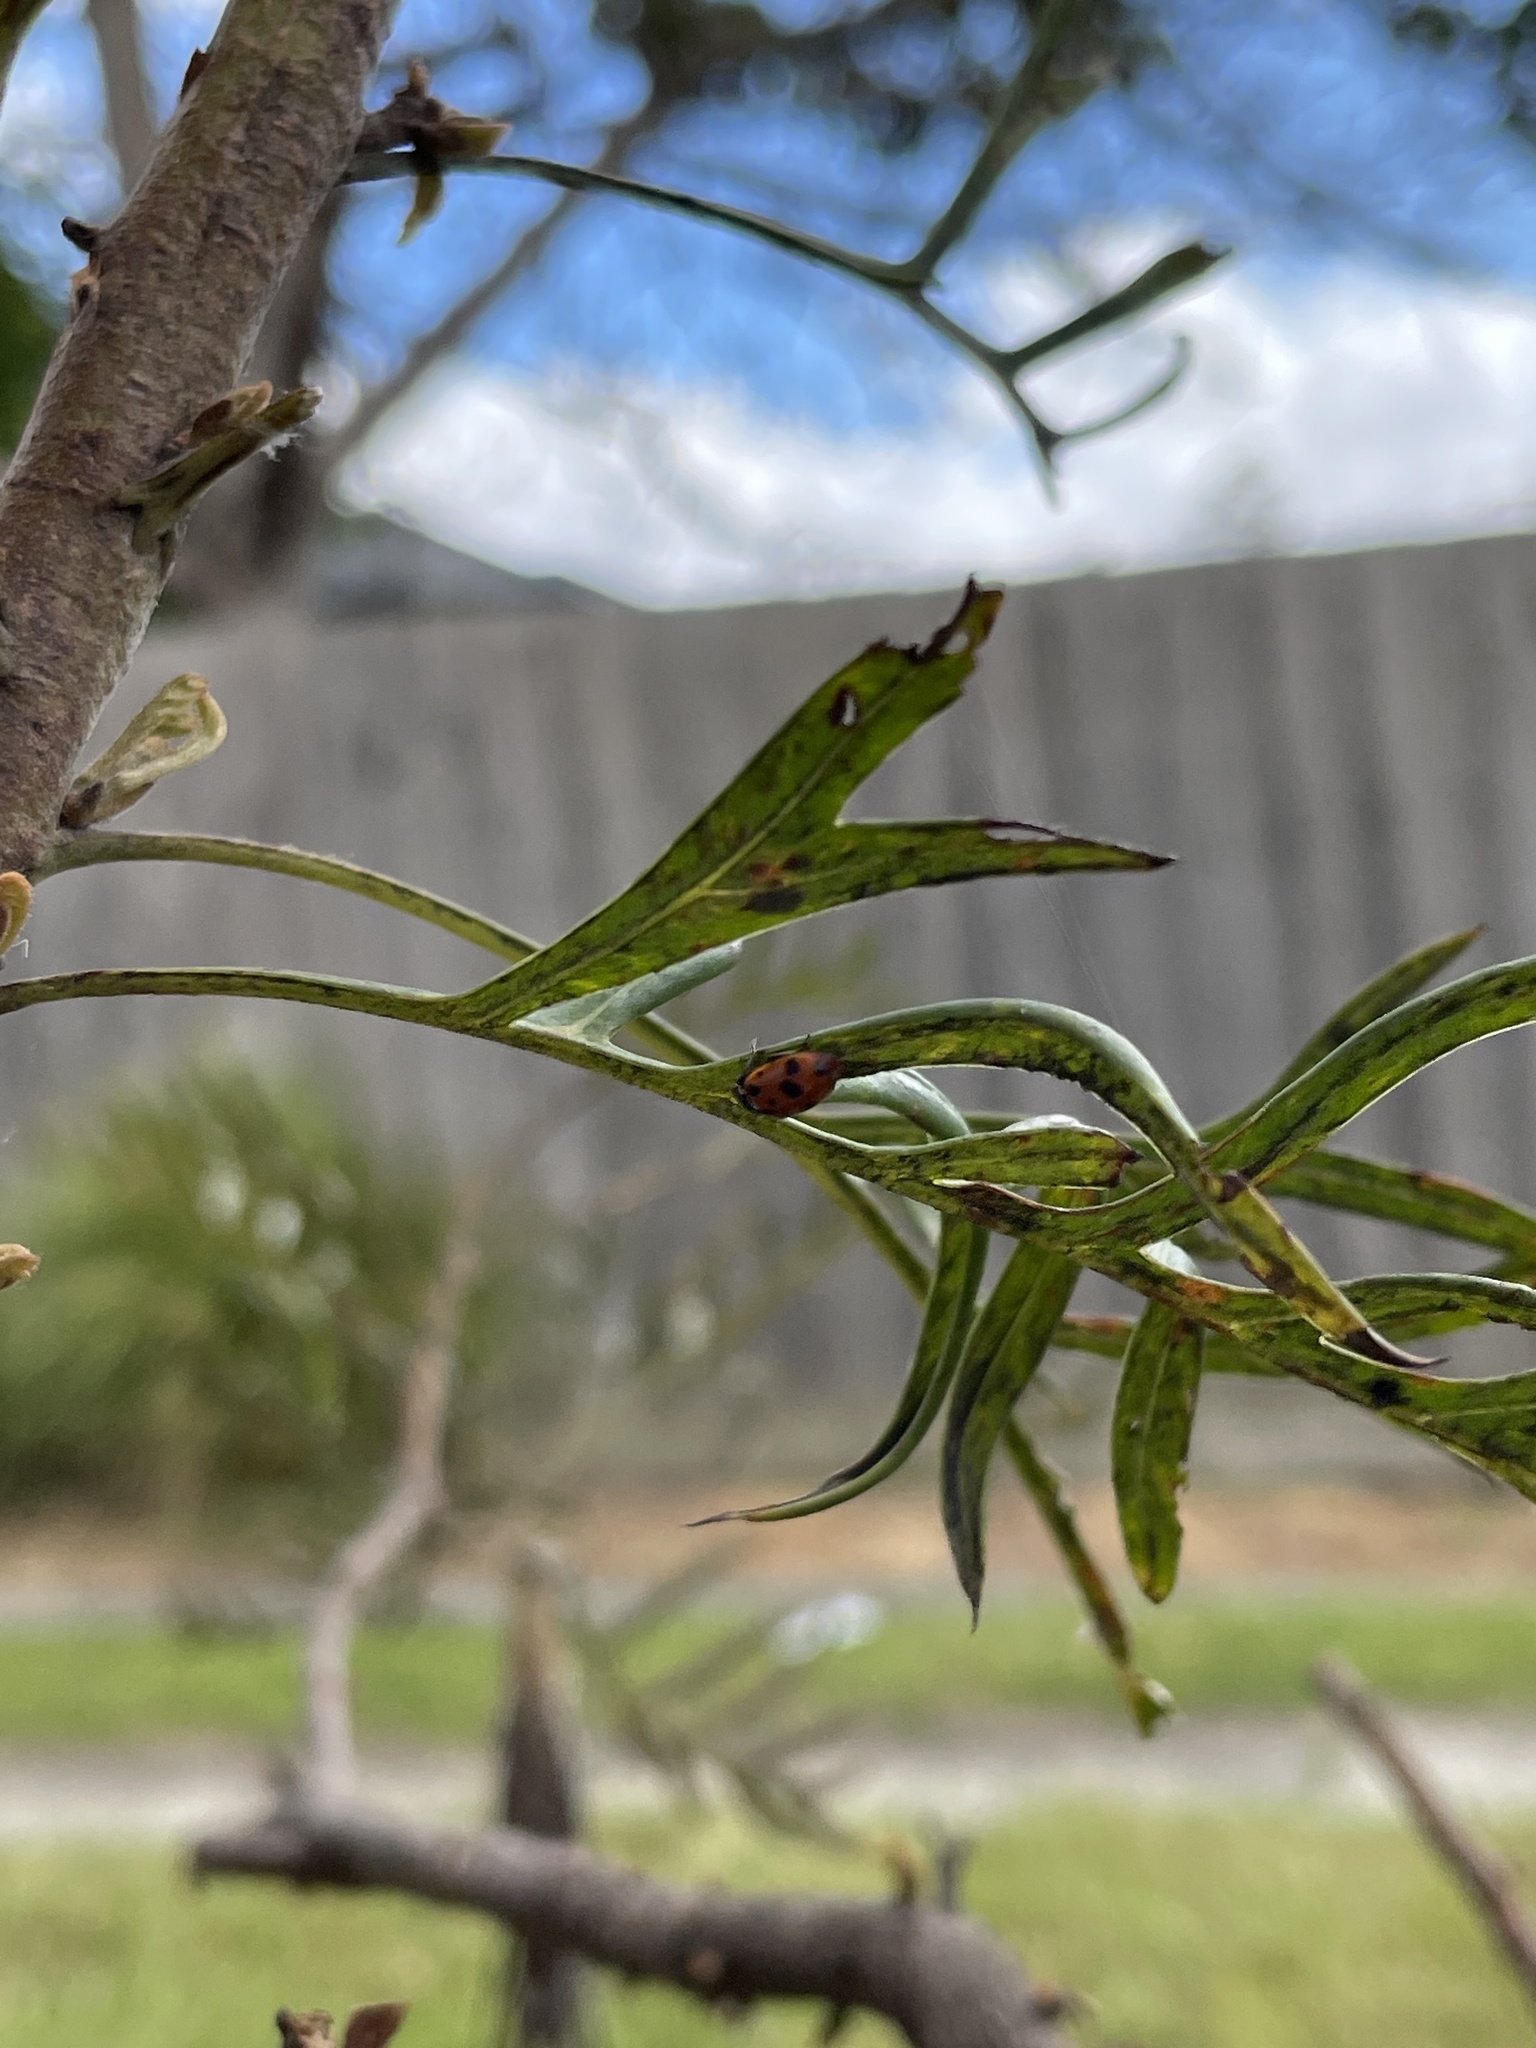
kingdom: Animalia
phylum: Arthropoda
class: Insecta
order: Coleoptera
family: Coccinellidae
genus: Hippodamia
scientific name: Hippodamia variegata
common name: Ladybird beetle
